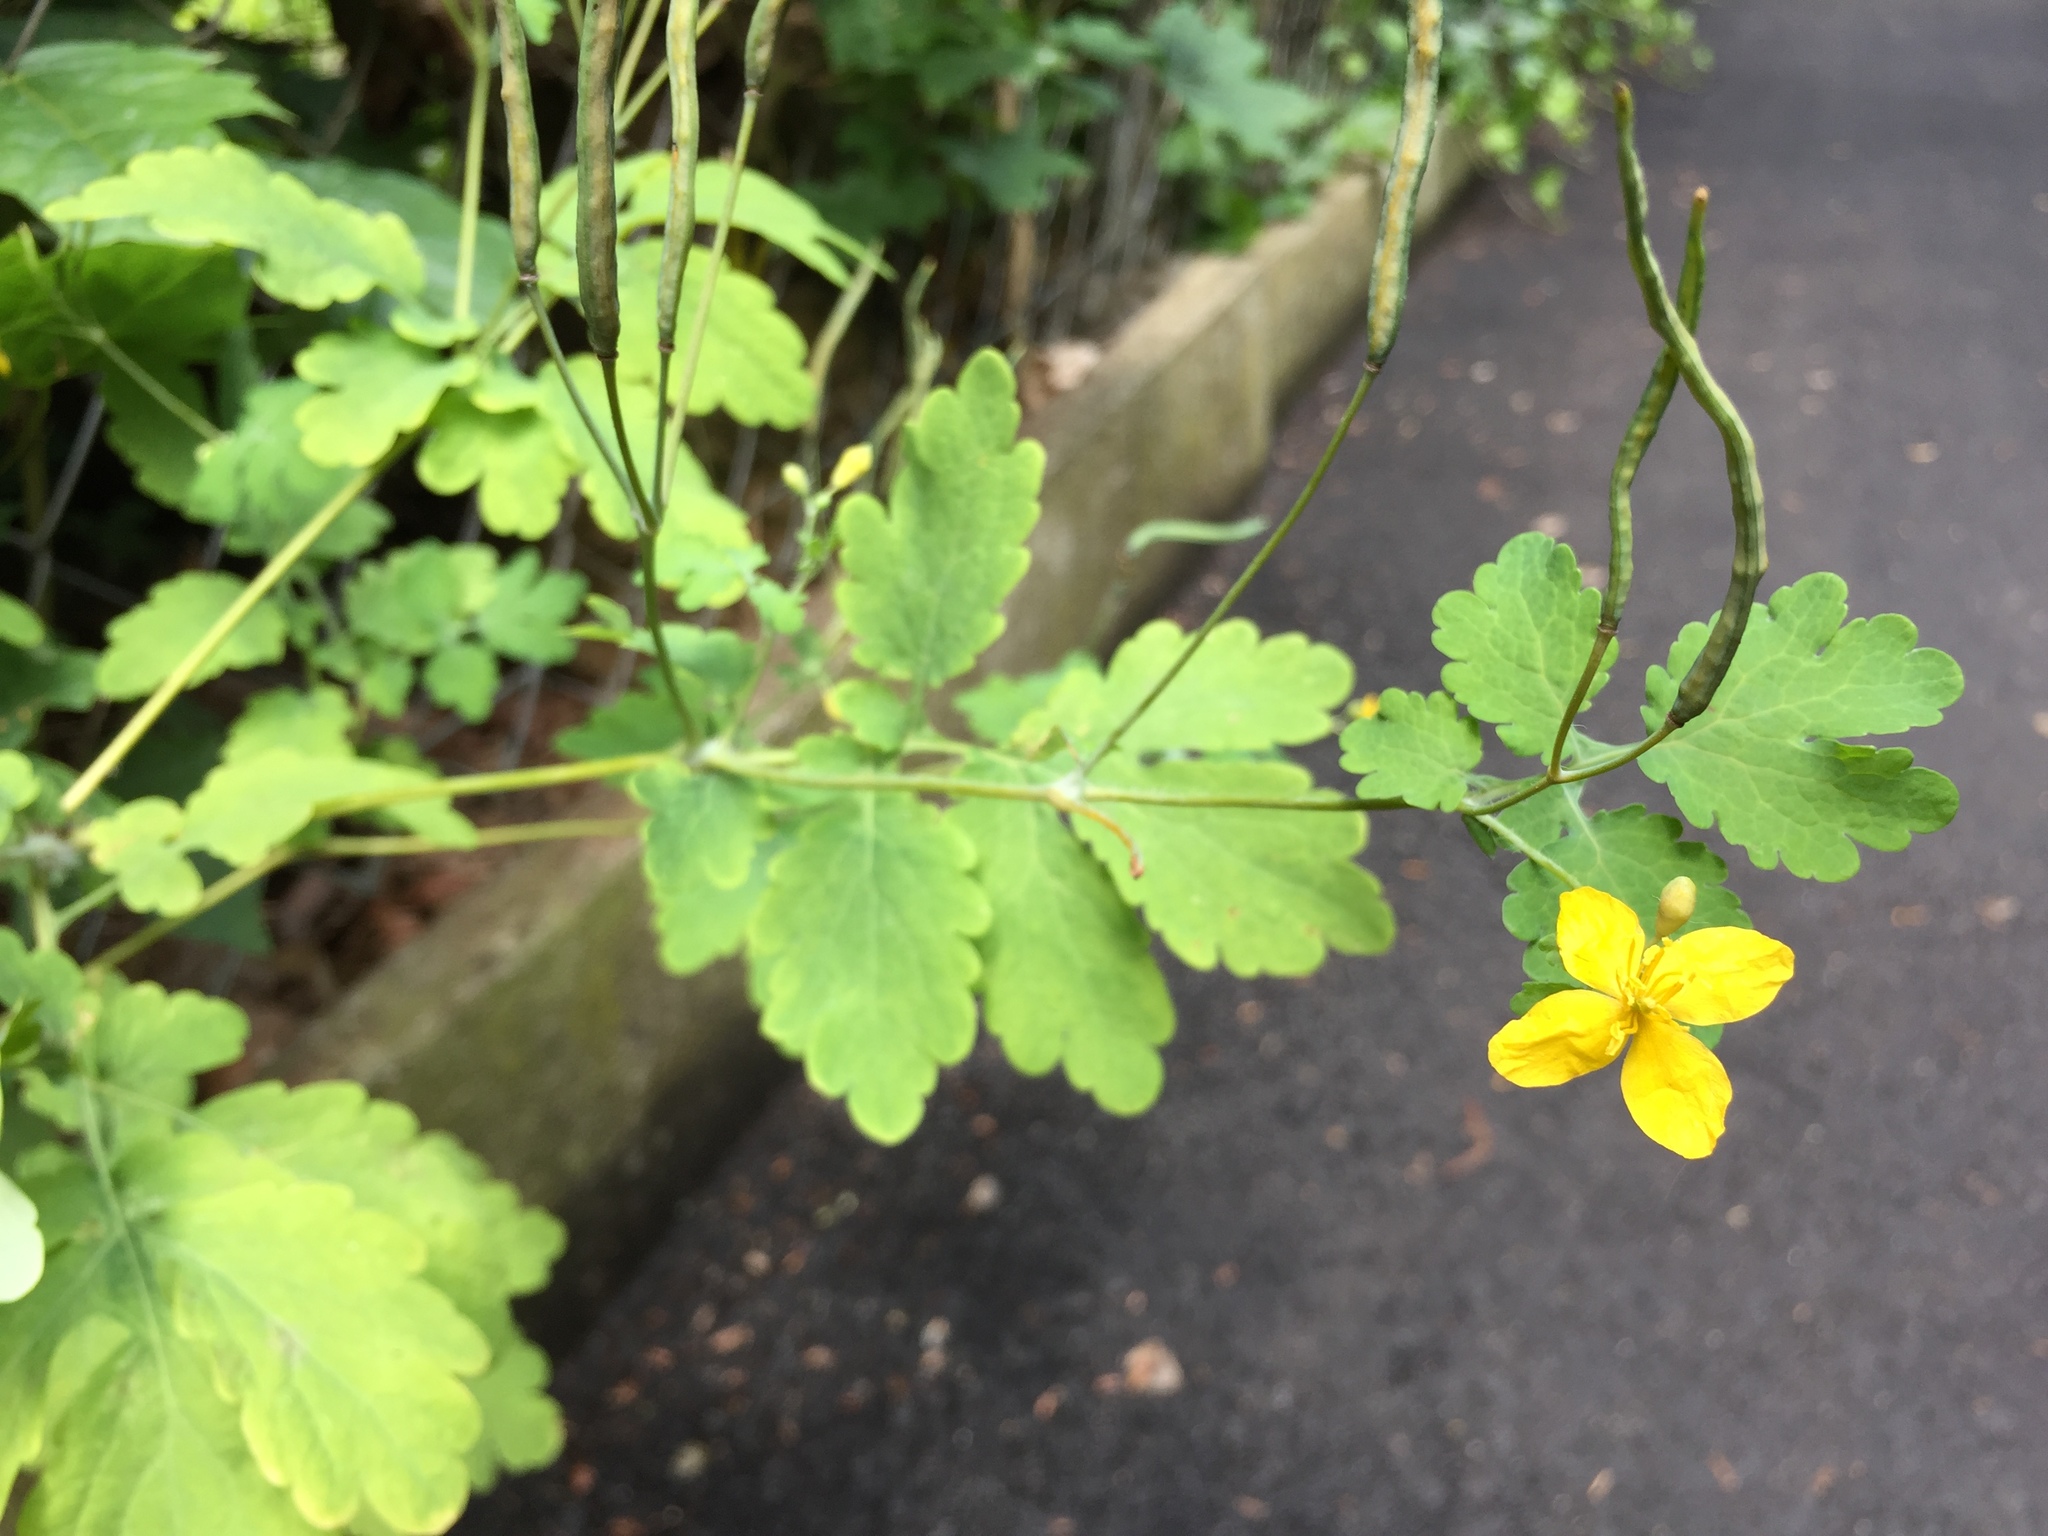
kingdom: Plantae
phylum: Tracheophyta
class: Magnoliopsida
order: Ranunculales
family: Papaveraceae
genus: Chelidonium
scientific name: Chelidonium majus
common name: Greater celandine
